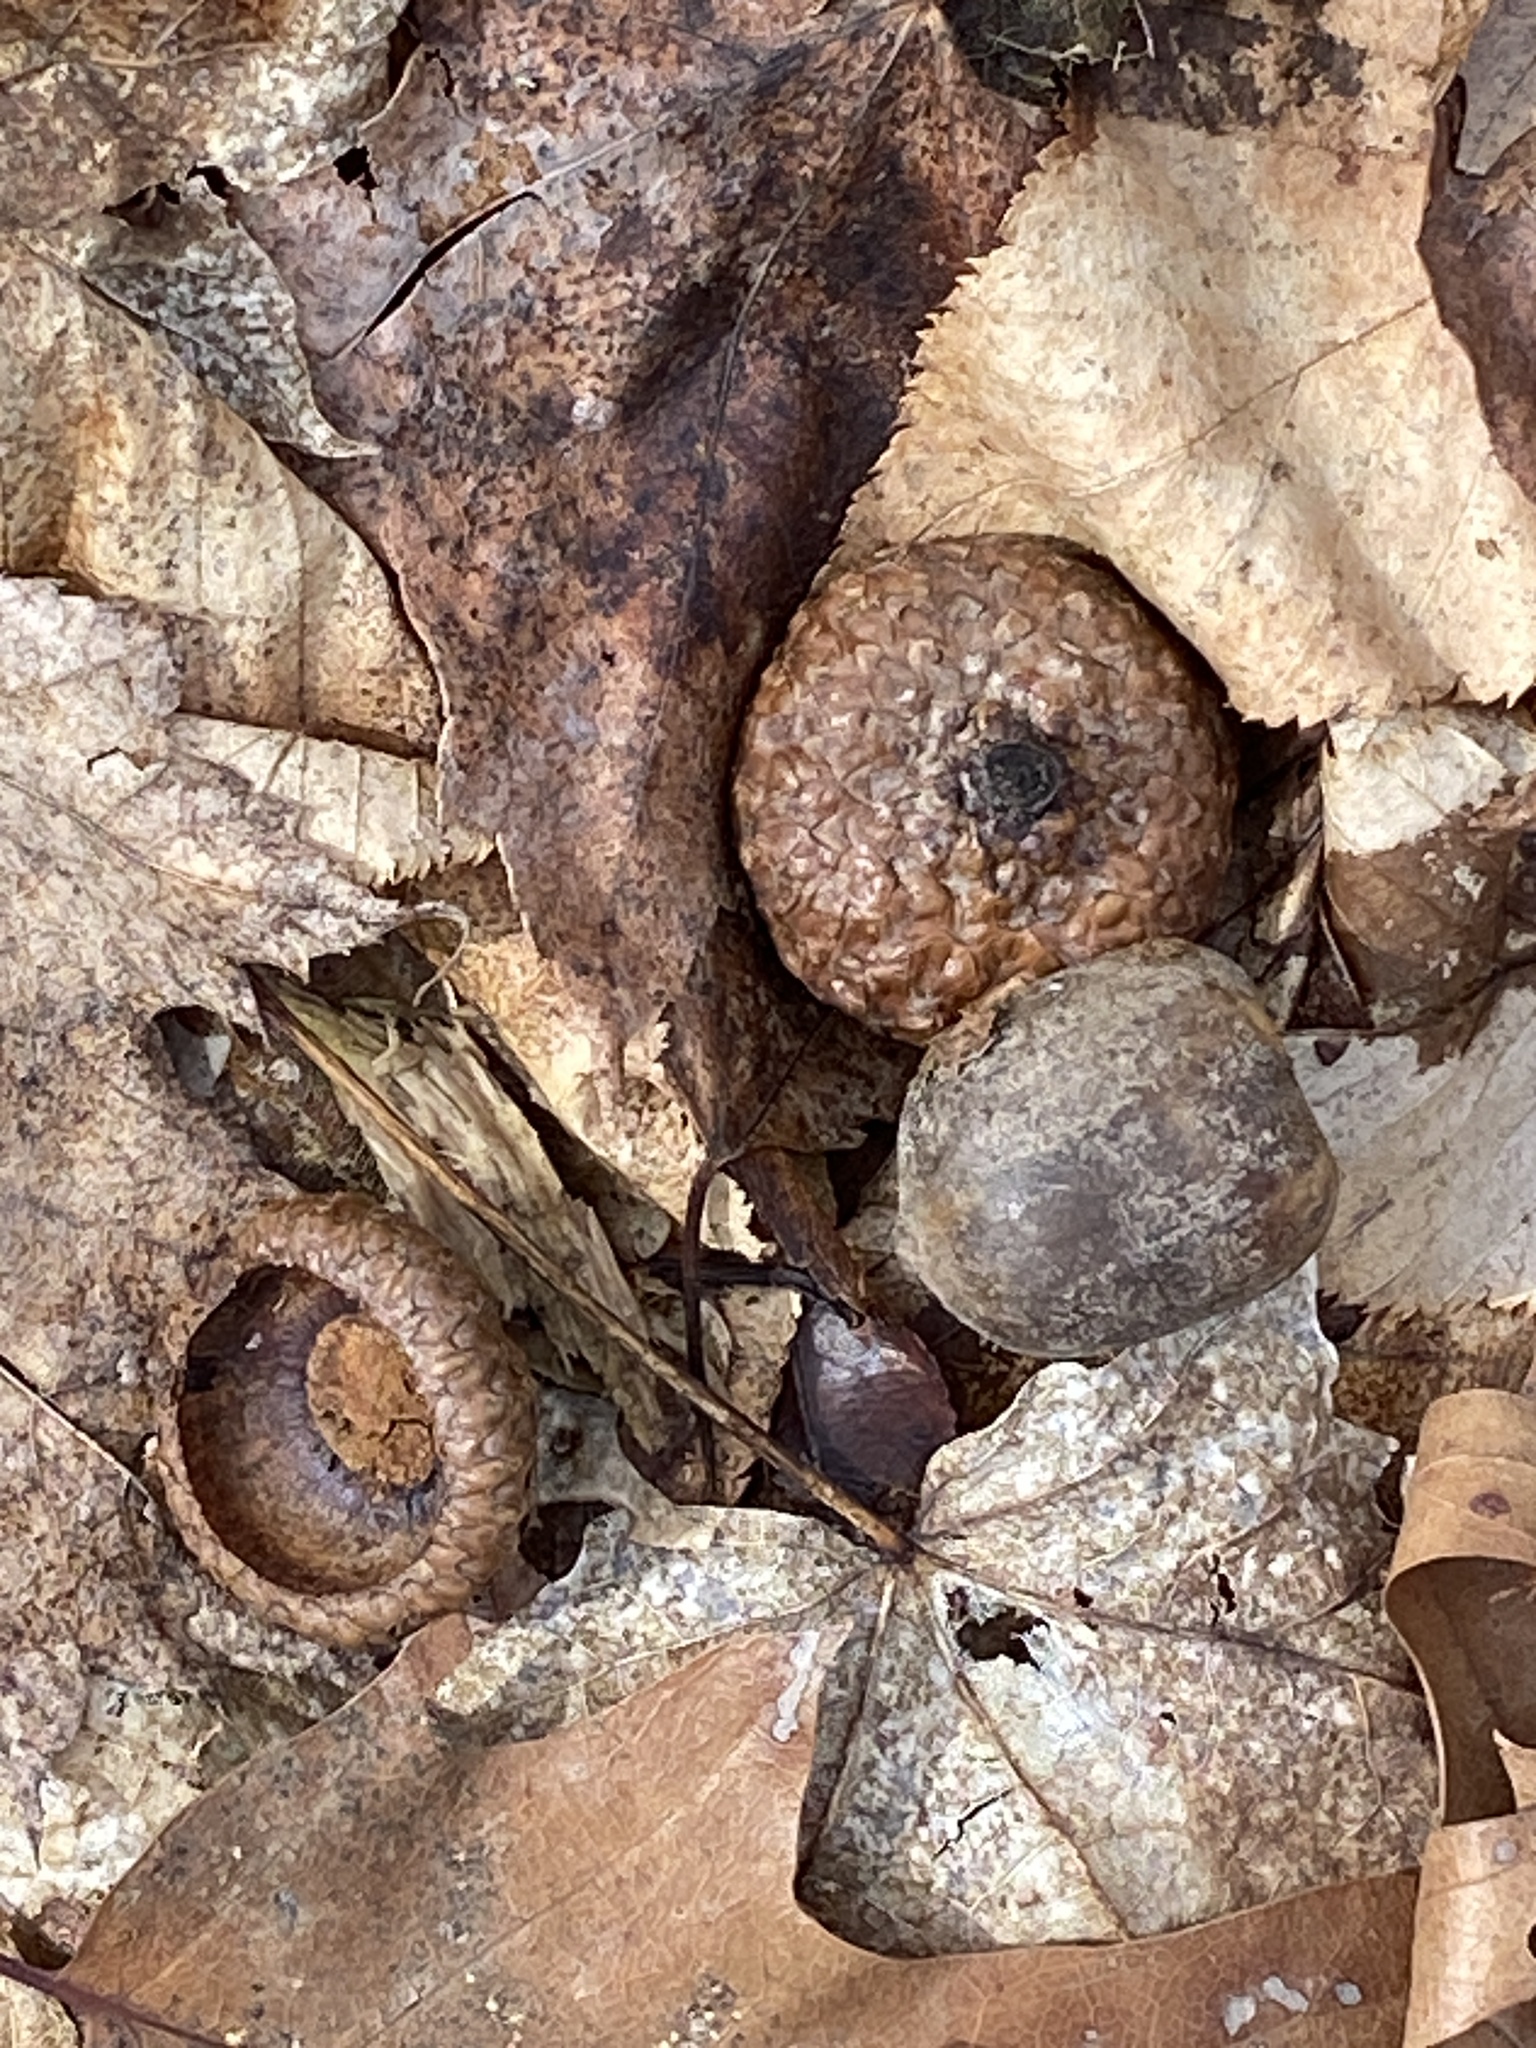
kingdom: Plantae
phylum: Tracheophyta
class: Magnoliopsida
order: Fagales
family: Fagaceae
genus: Quercus
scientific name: Quercus rubra
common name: Red oak
